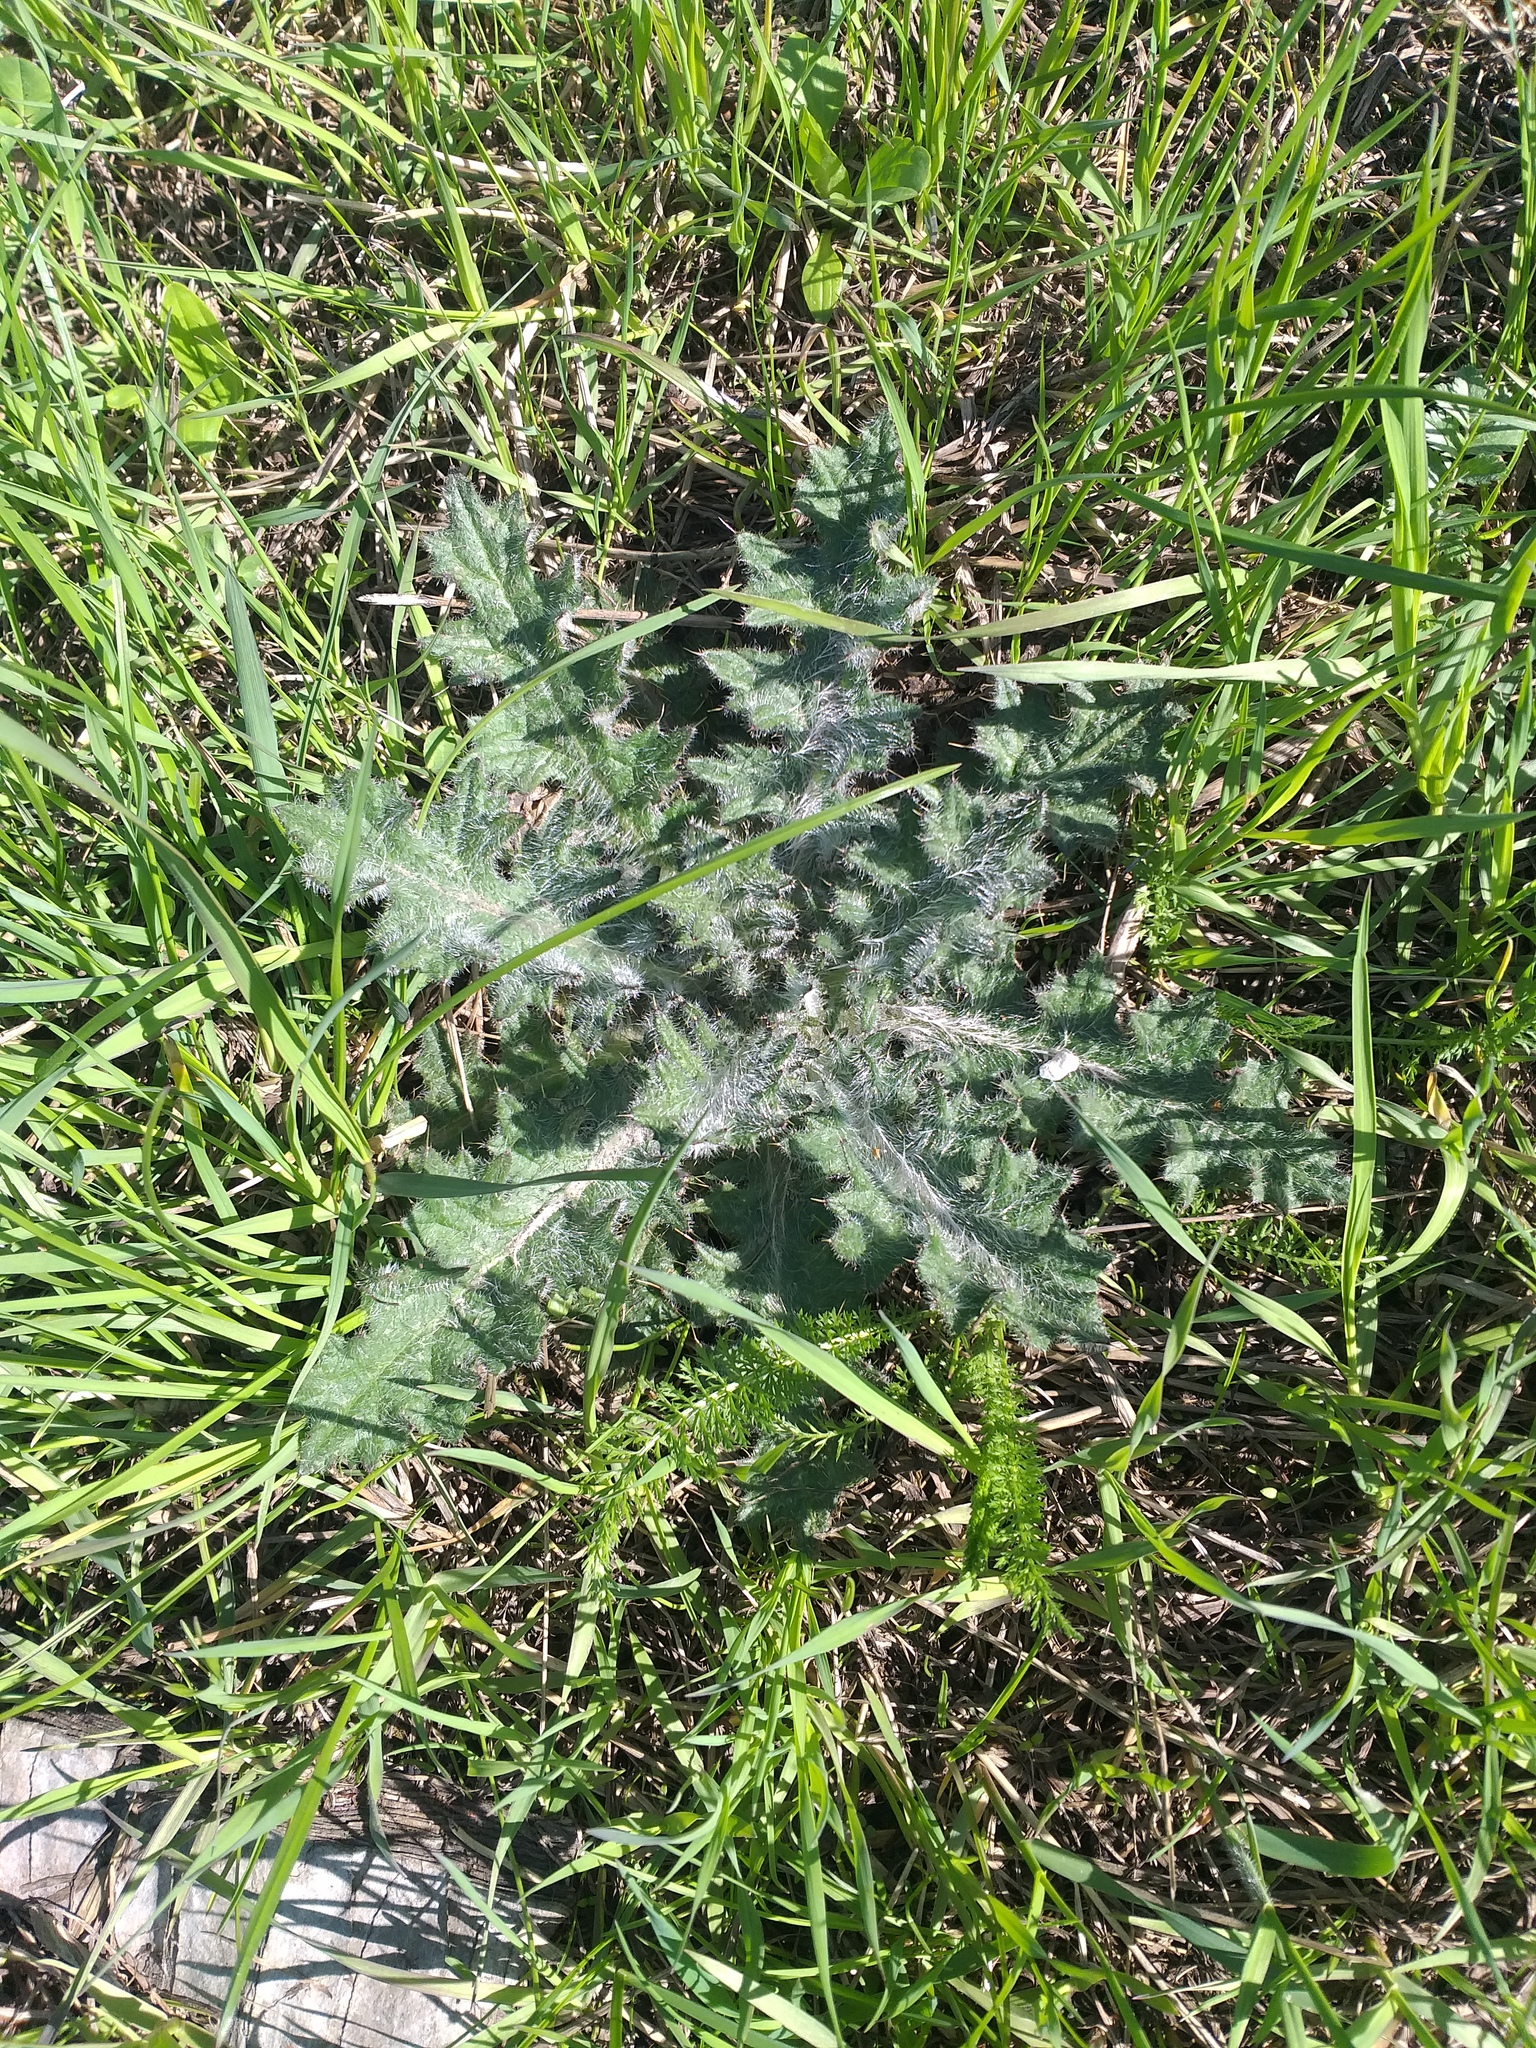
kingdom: Plantae
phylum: Tracheophyta
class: Magnoliopsida
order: Asterales
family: Asteraceae
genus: Cirsium
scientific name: Cirsium vulgare
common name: Bull thistle
